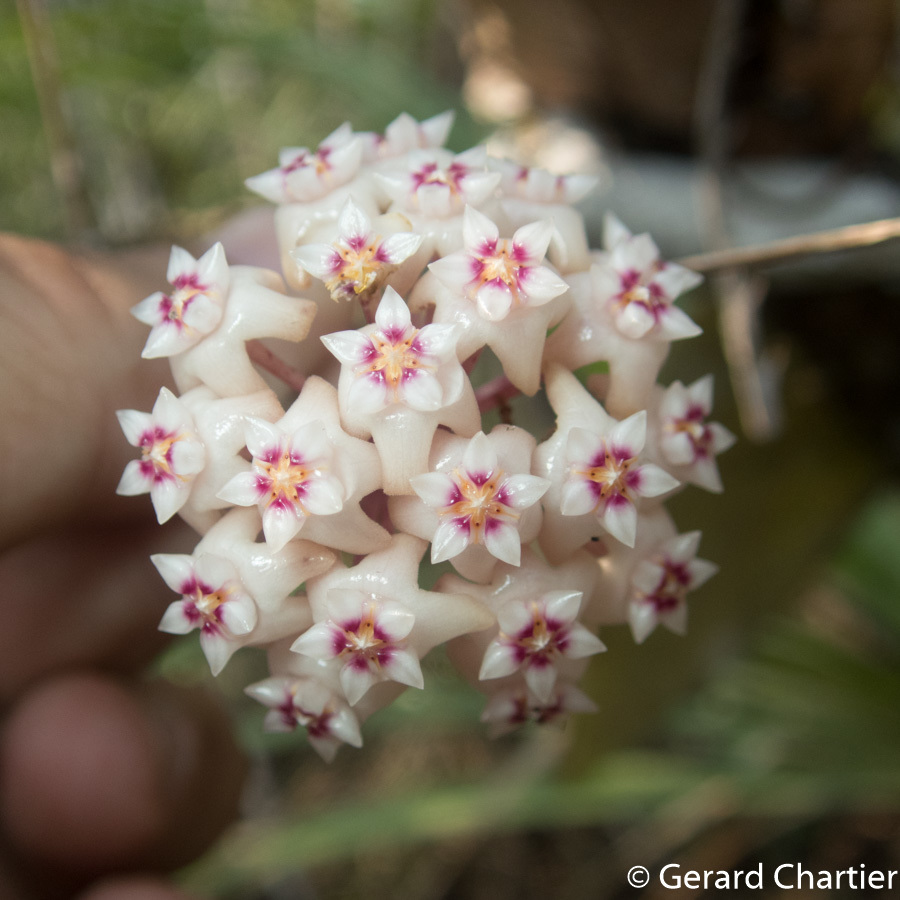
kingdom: Plantae
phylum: Tracheophyta
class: Magnoliopsida
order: Gentianales
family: Apocynaceae
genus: Hoya
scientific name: Hoya verticillata
